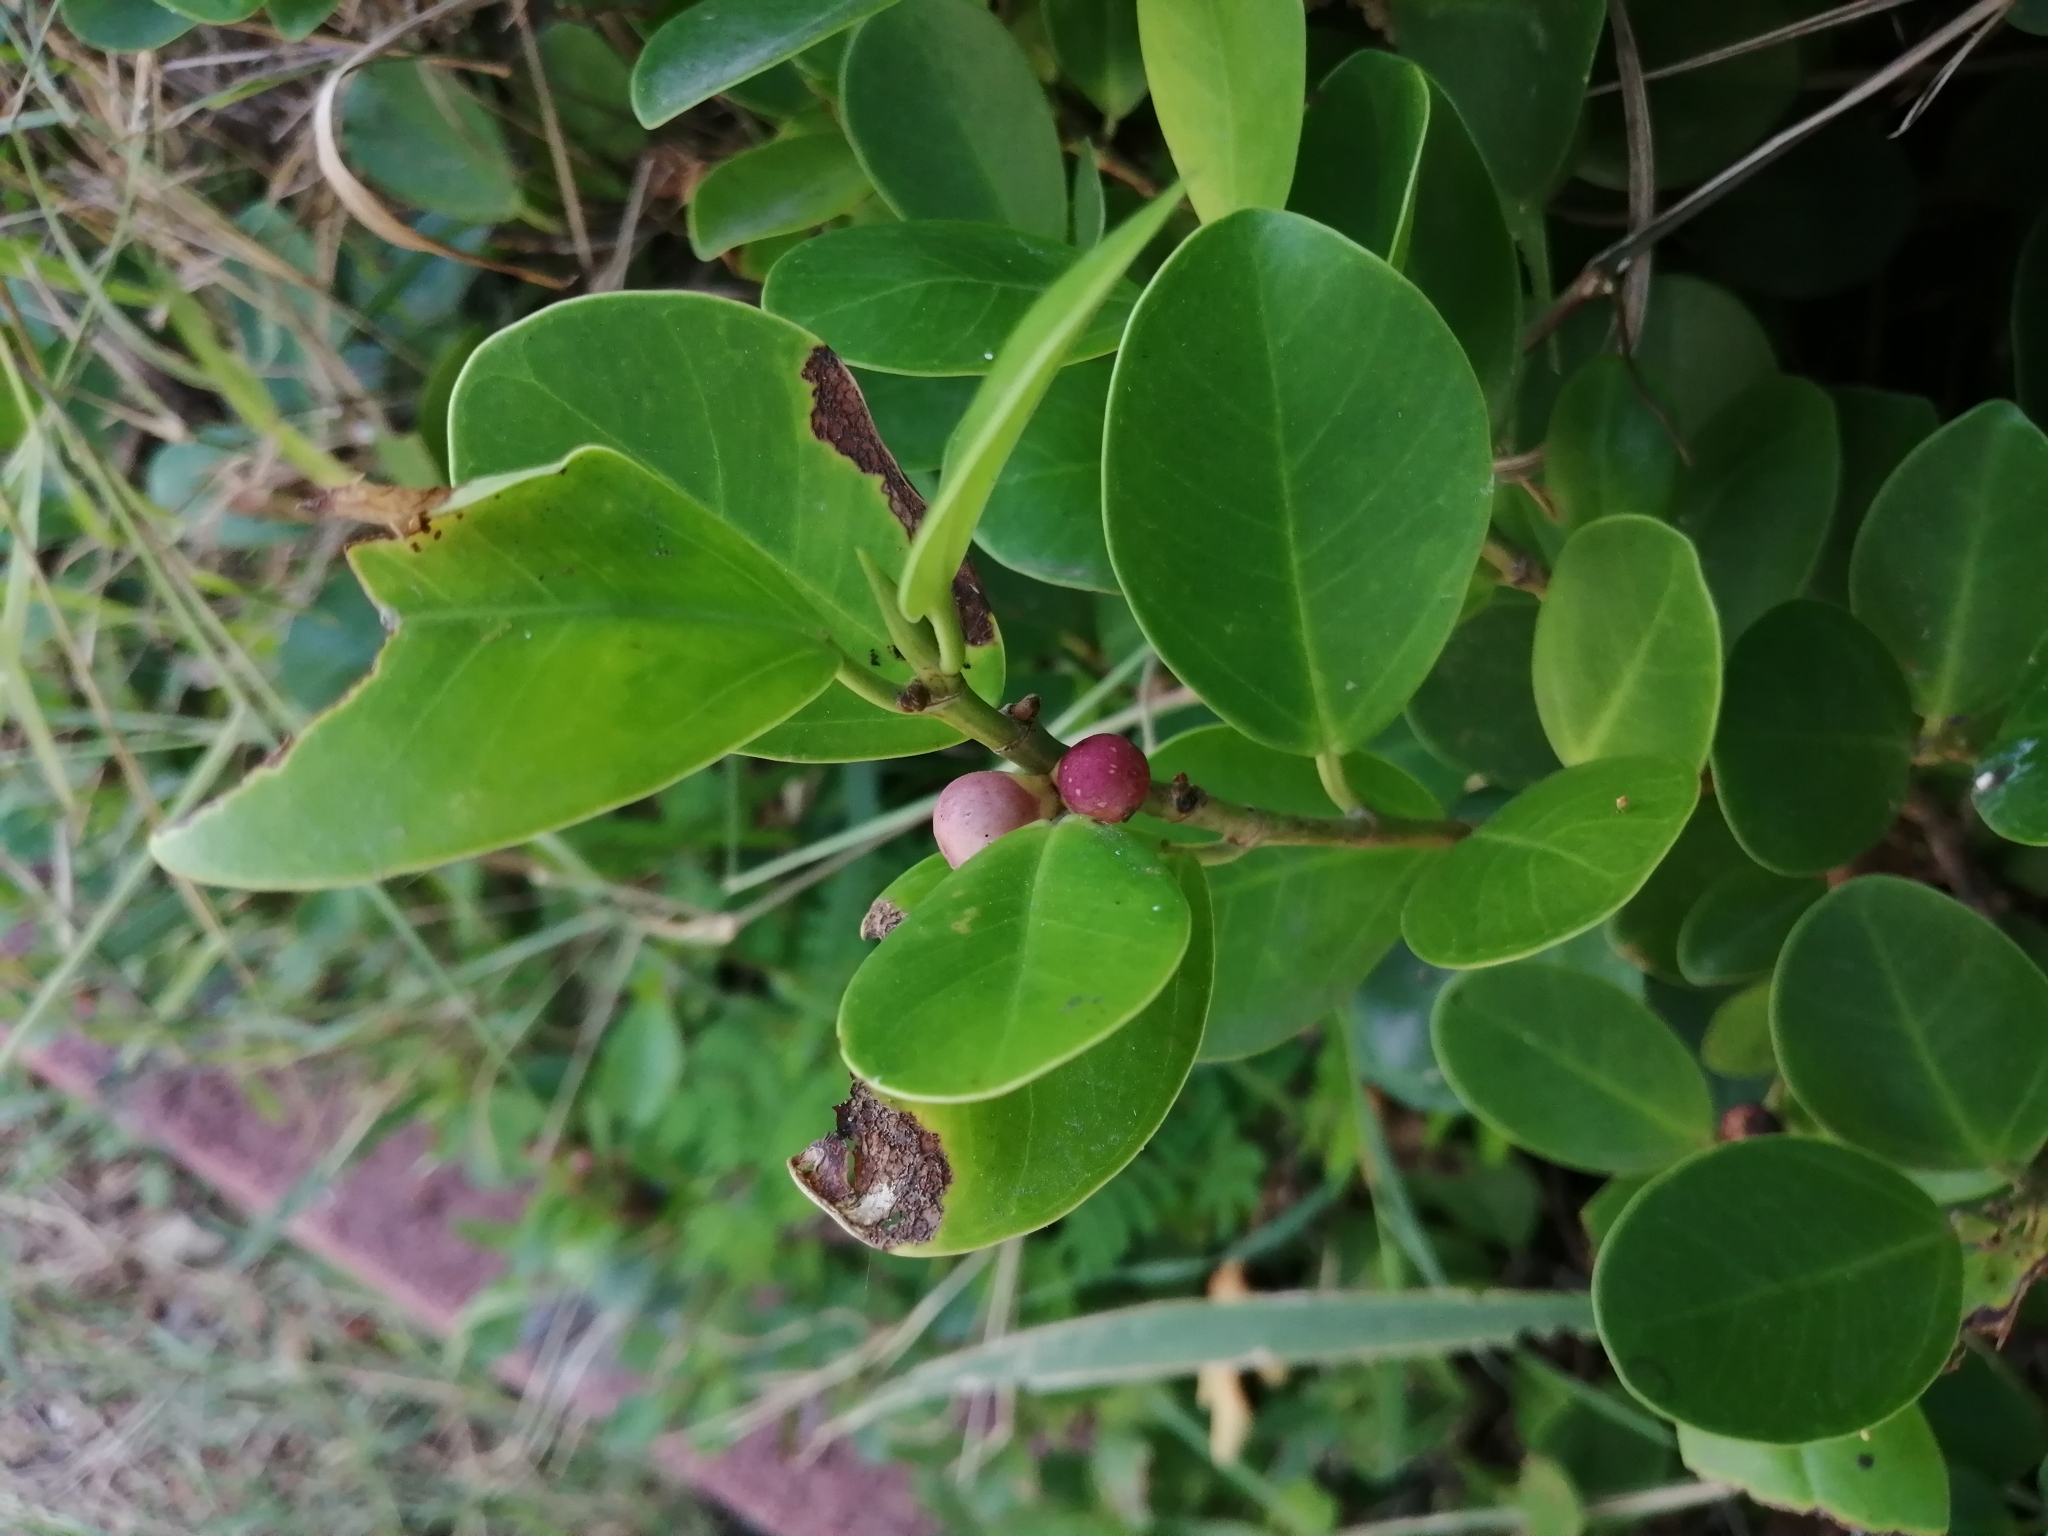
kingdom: Plantae
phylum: Tracheophyta
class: Magnoliopsida
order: Rosales
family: Moraceae
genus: Ficus
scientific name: Ficus microcarpa
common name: Chinese banyan
